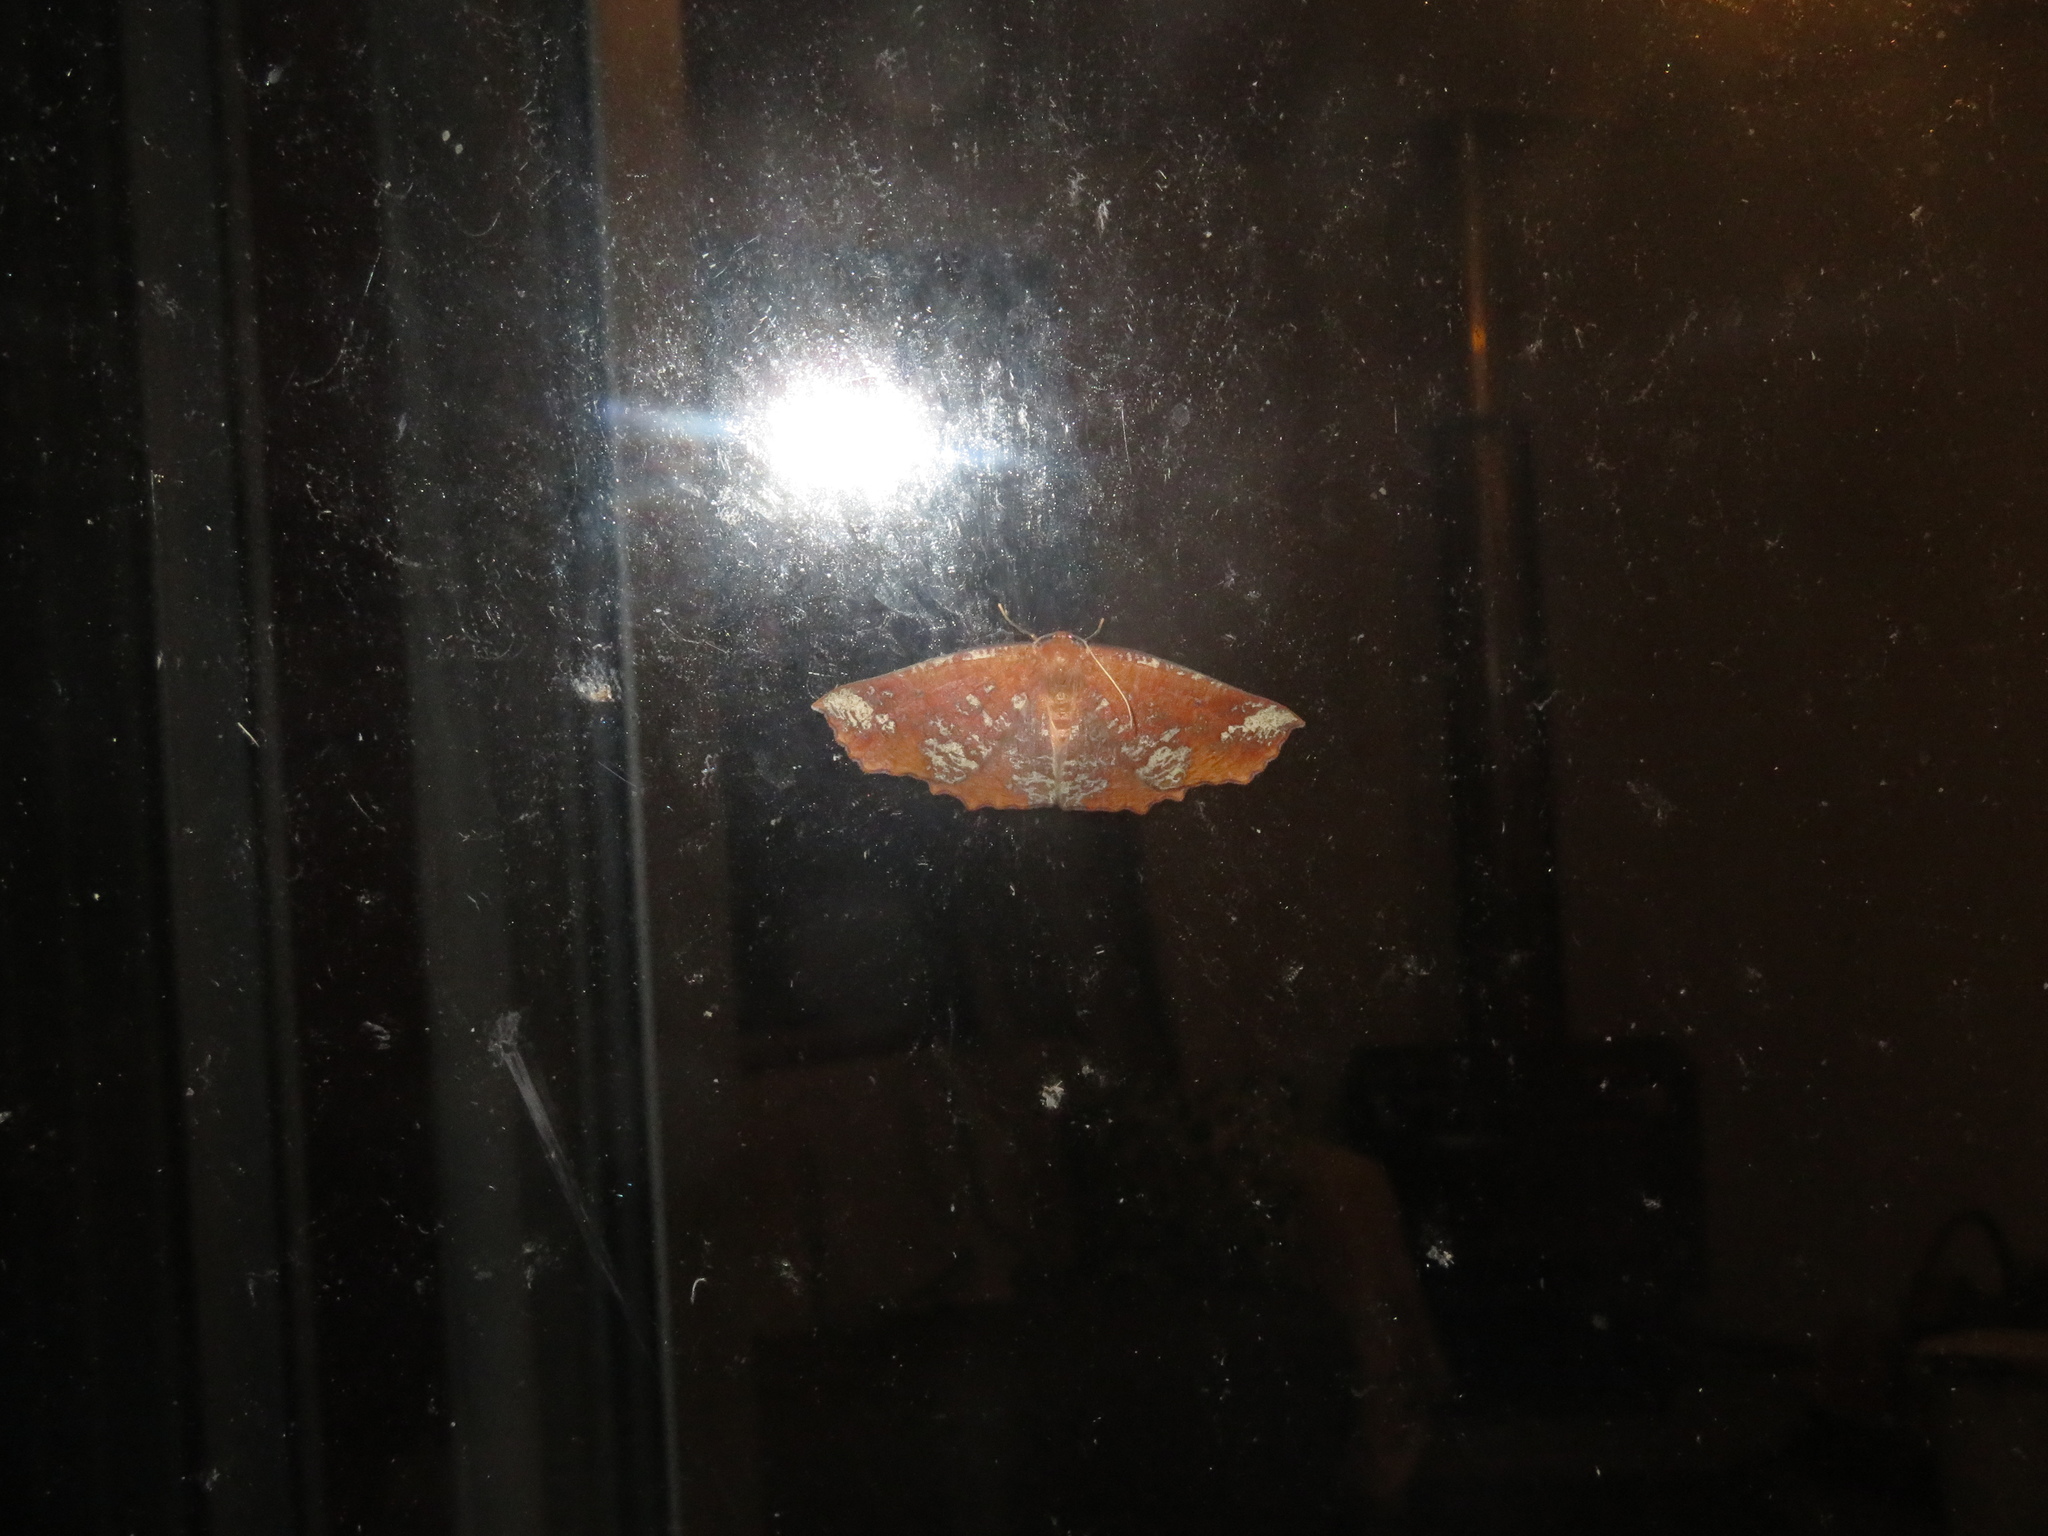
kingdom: Animalia
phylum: Arthropoda
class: Insecta
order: Lepidoptera
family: Geometridae
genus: Xyridacma
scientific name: Xyridacma ustaria
